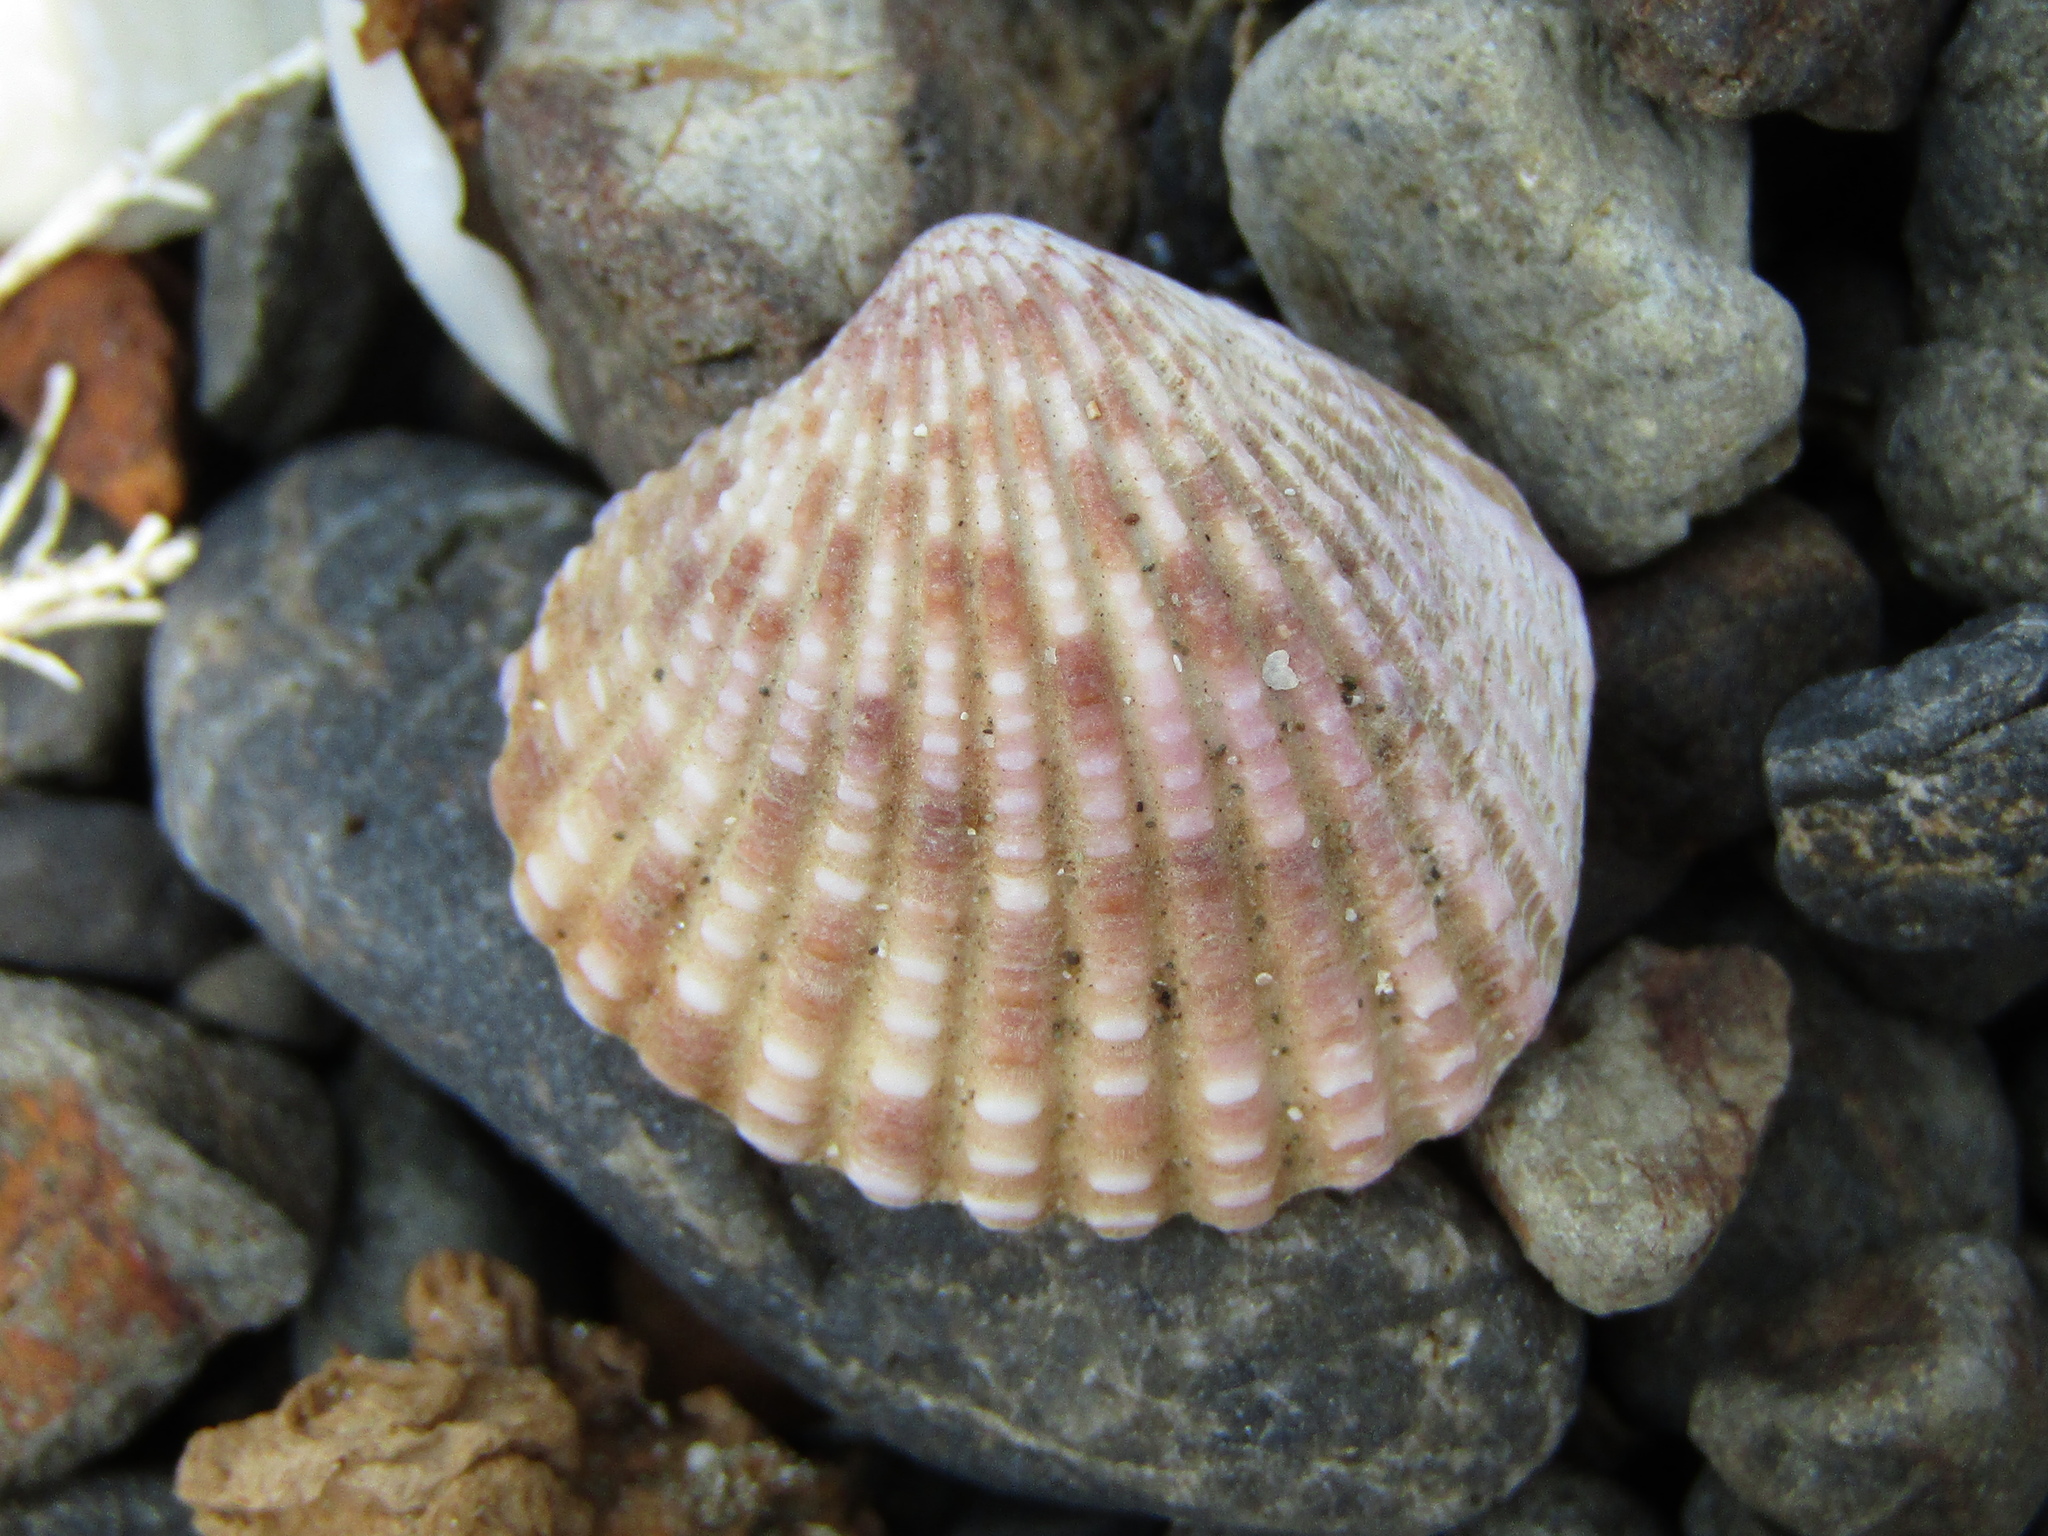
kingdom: Animalia
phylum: Mollusca
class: Bivalvia
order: Carditida
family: Carditidae
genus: Purpurocardia
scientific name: Purpurocardia purpurata
